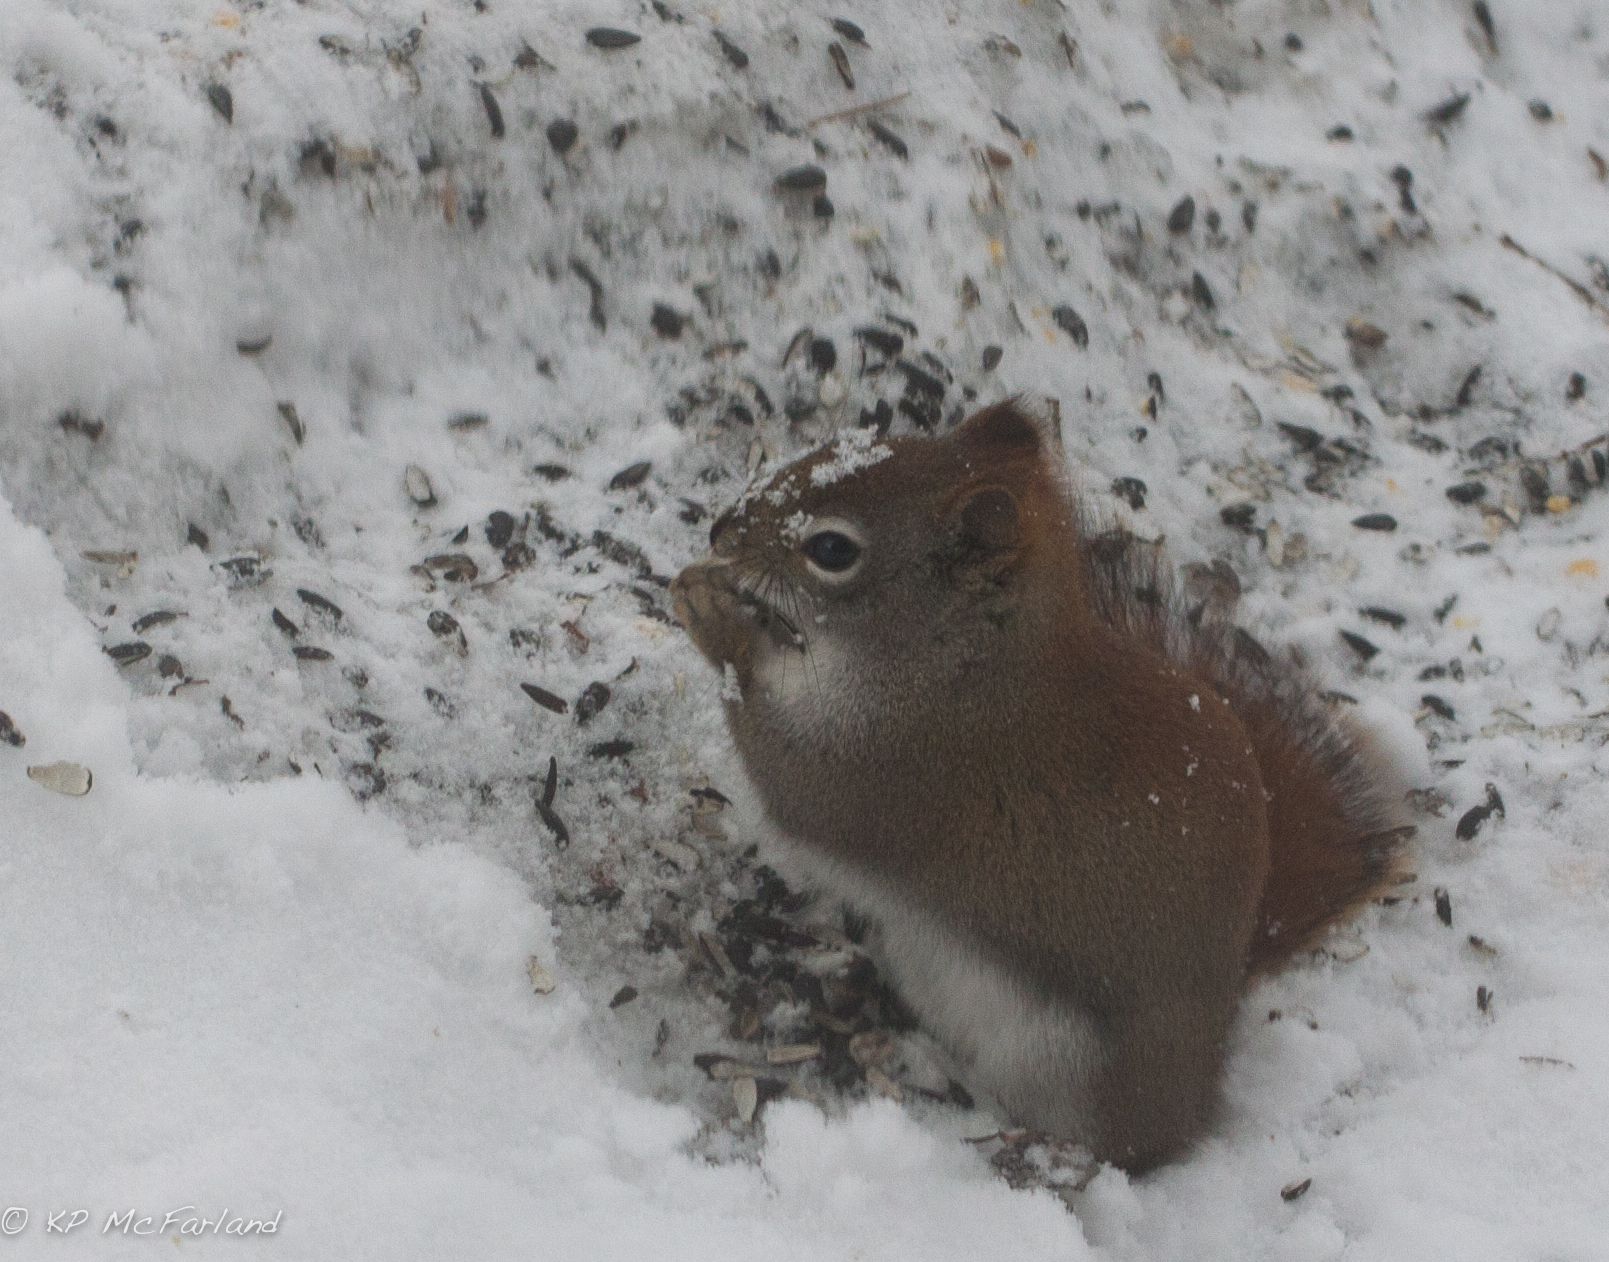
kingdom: Animalia
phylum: Chordata
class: Mammalia
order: Rodentia
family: Sciuridae
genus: Tamiasciurus
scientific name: Tamiasciurus hudsonicus
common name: Red squirrel
